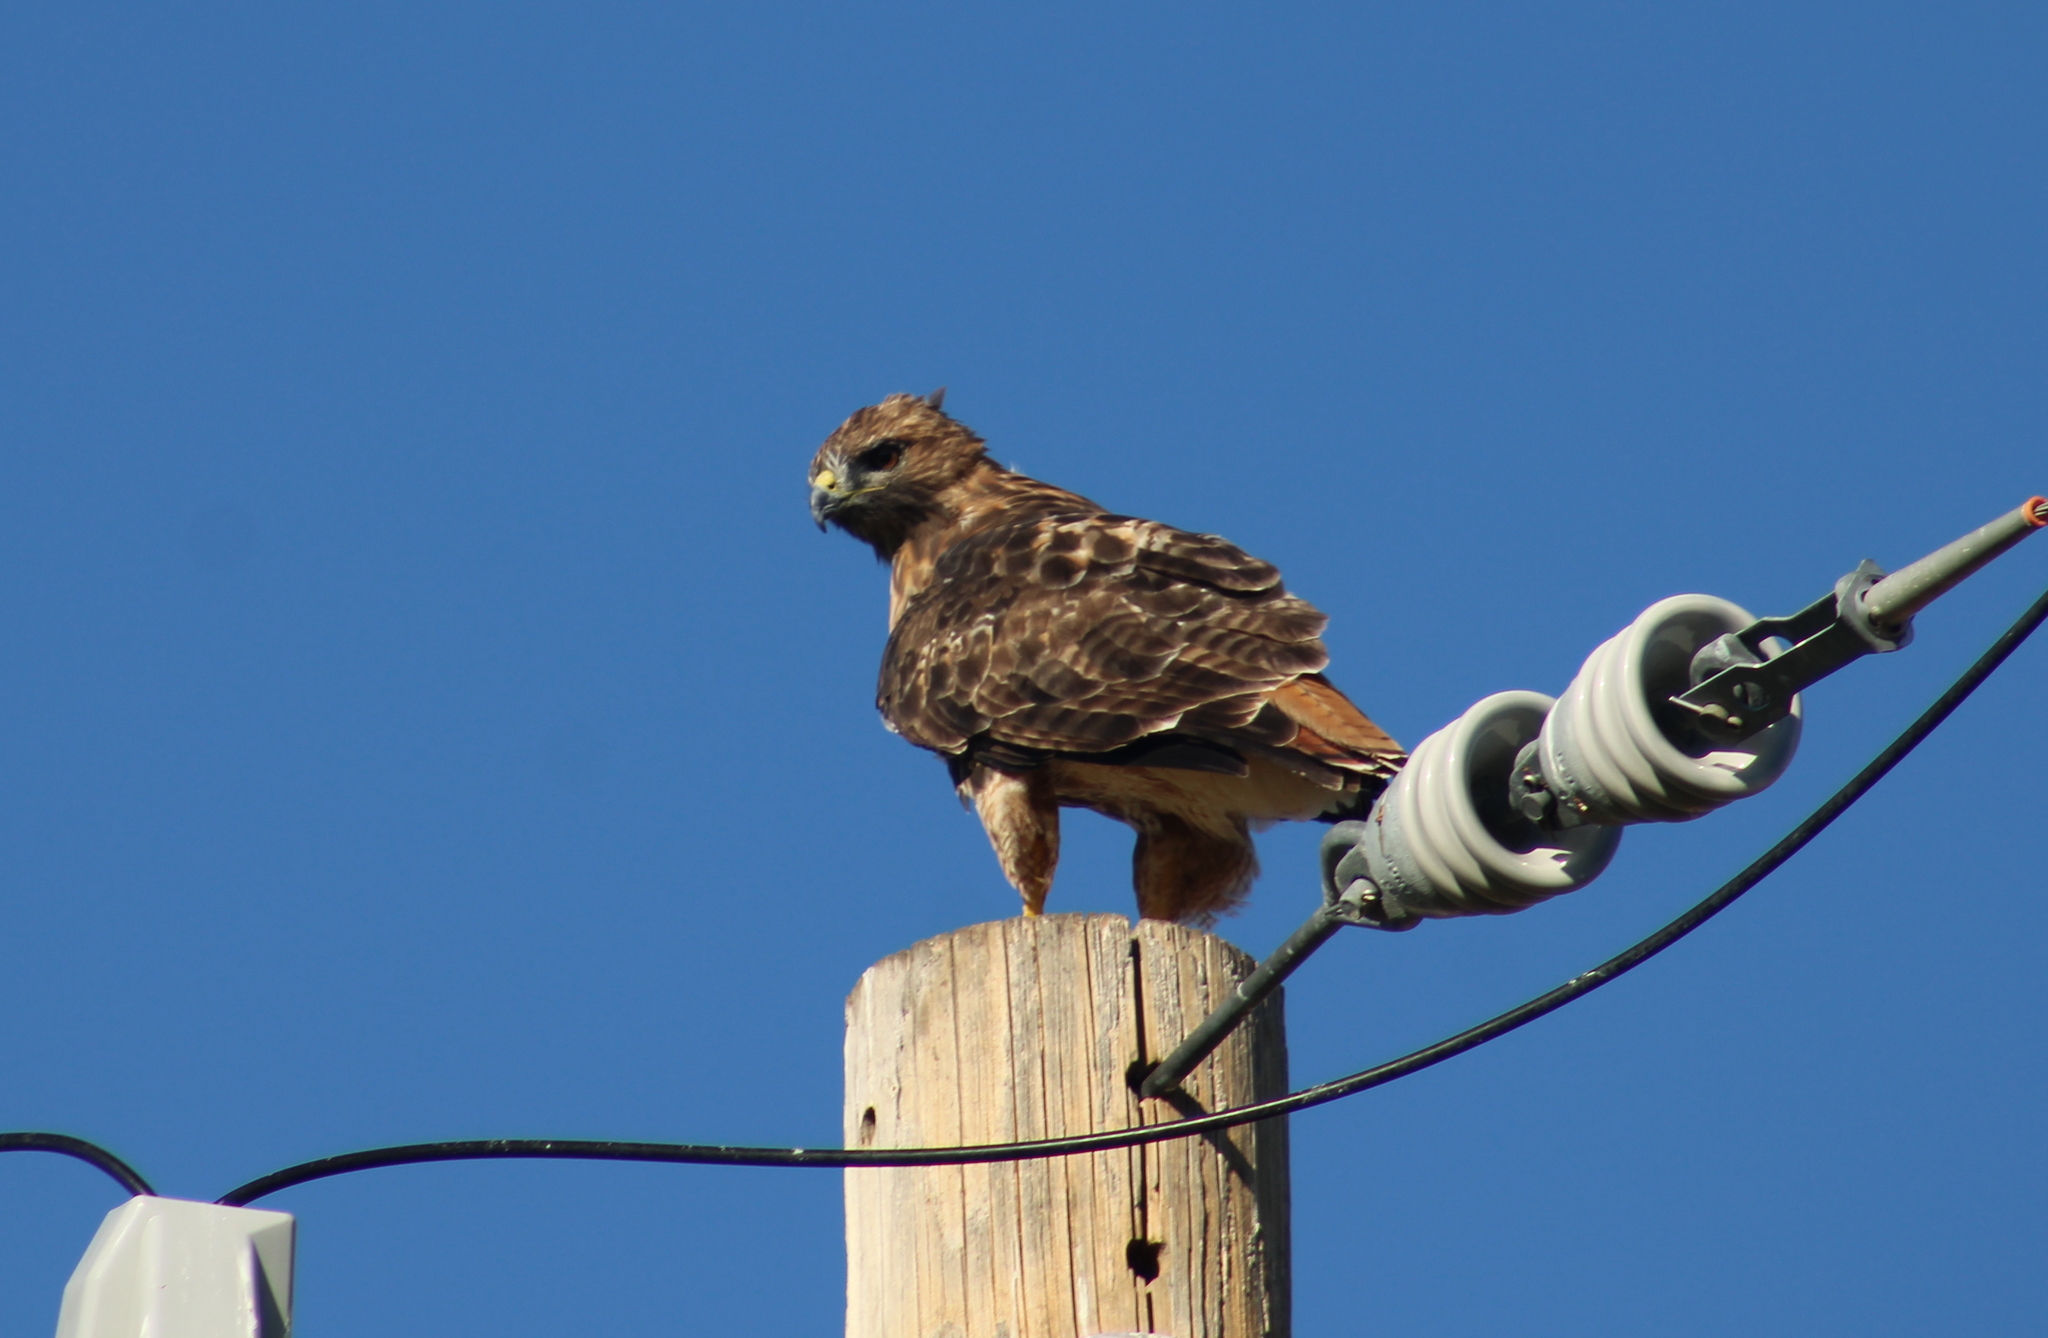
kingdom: Animalia
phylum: Chordata
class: Aves
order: Accipitriformes
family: Accipitridae
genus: Buteo
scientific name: Buteo jamaicensis
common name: Red-tailed hawk
